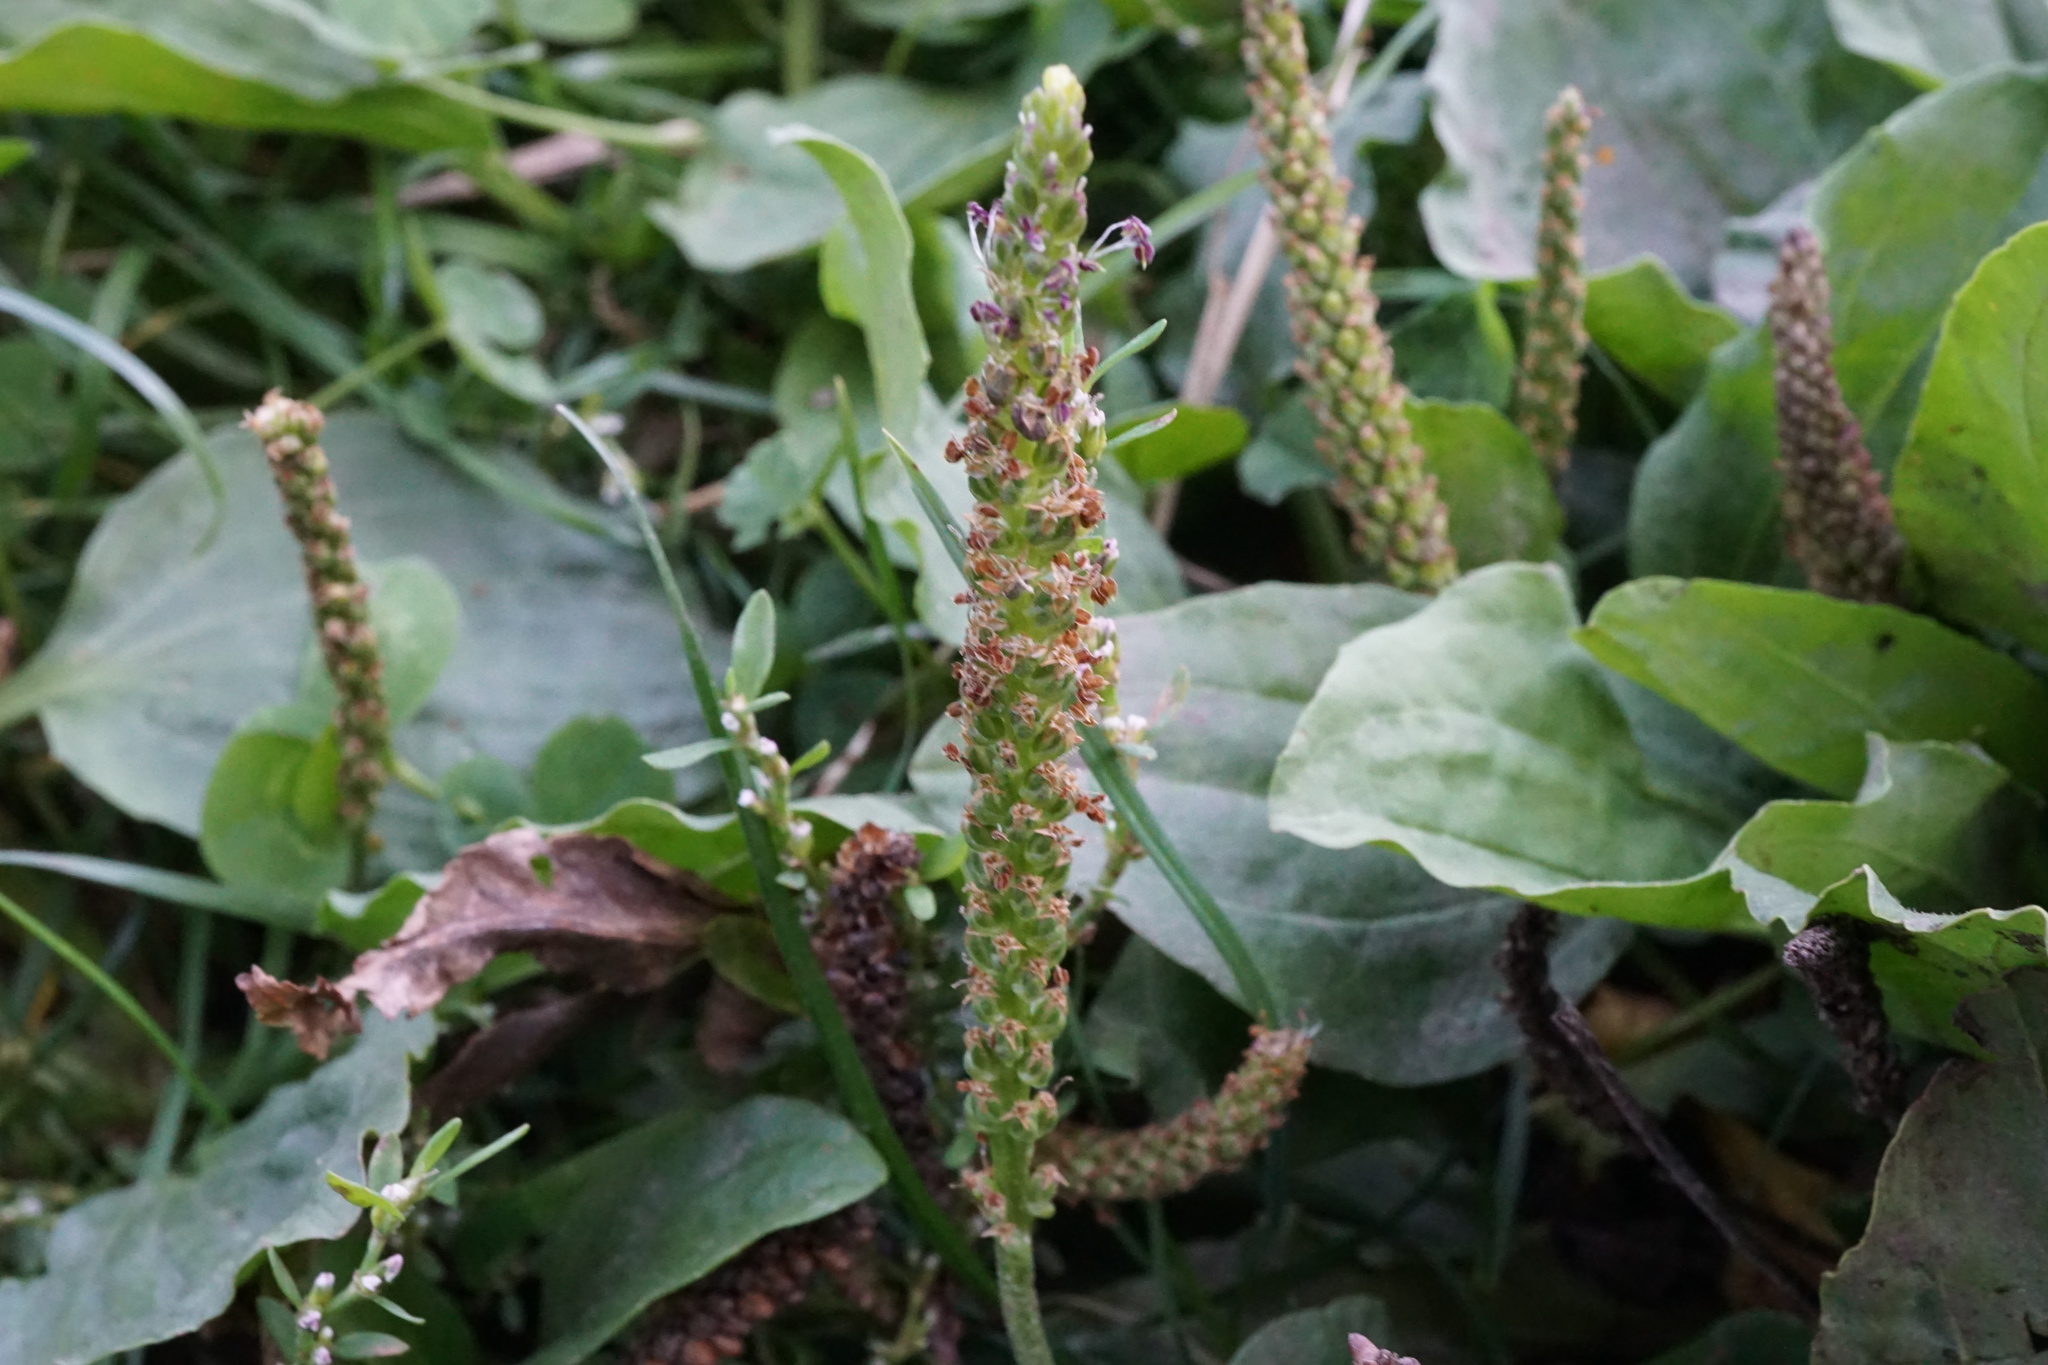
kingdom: Plantae
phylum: Tracheophyta
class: Magnoliopsida
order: Lamiales
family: Plantaginaceae
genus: Plantago
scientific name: Plantago major
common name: Common plantain
